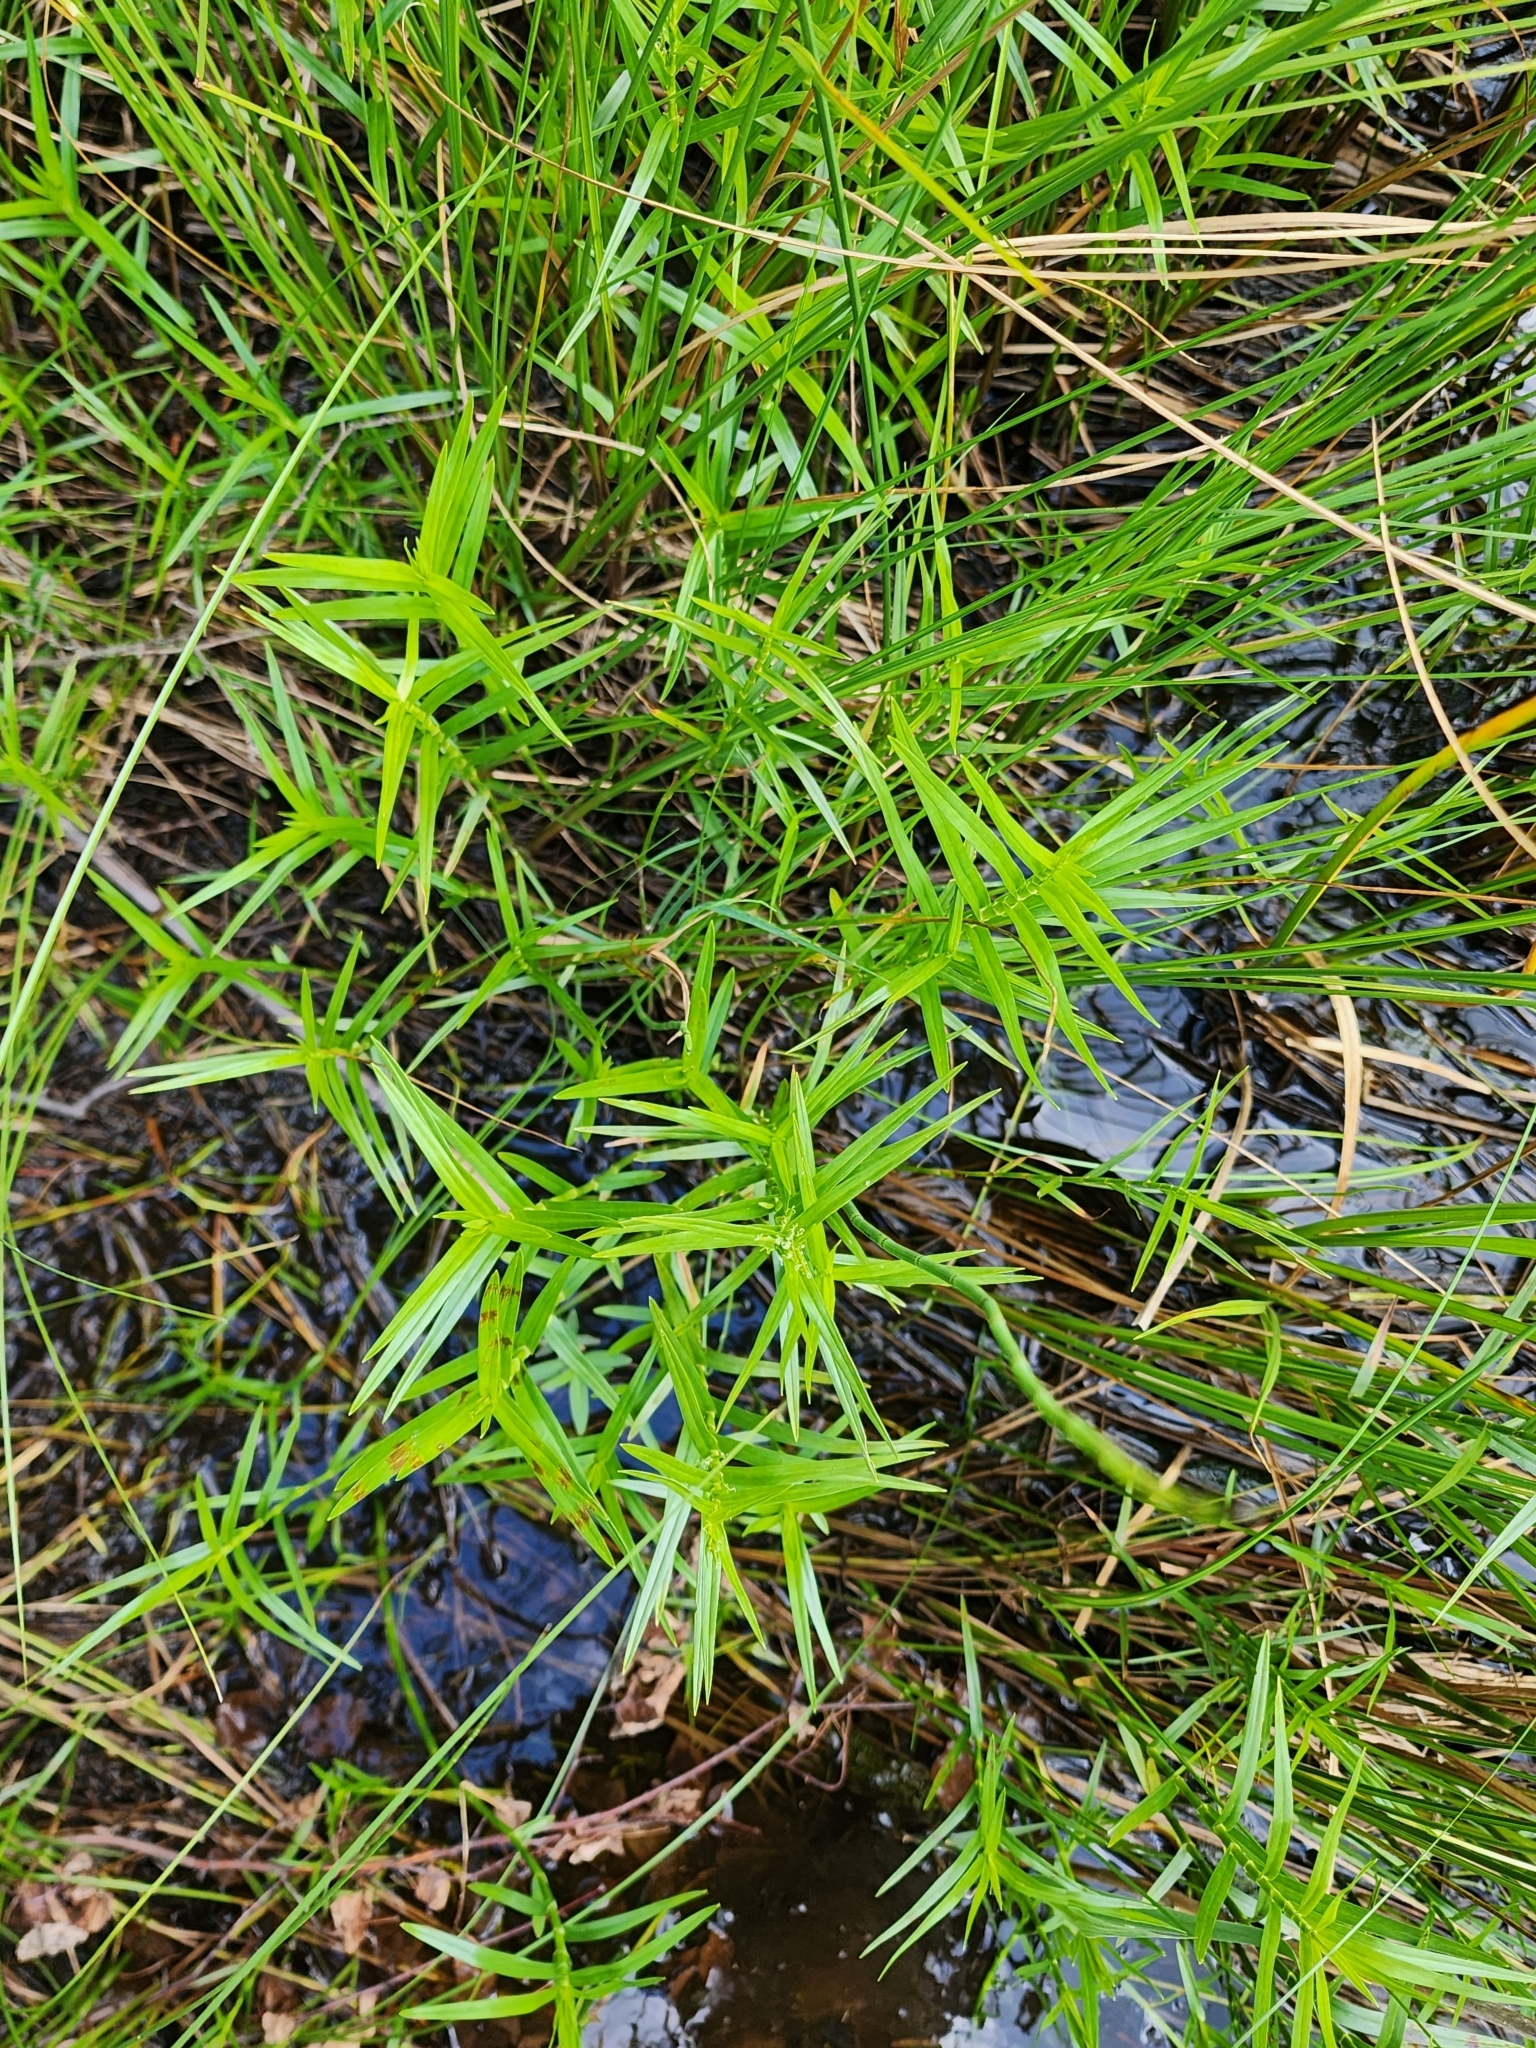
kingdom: Plantae
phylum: Tracheophyta
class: Liliopsida
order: Poales
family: Cyperaceae
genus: Dulichium
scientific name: Dulichium arundinaceum
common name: Three-way sedge
